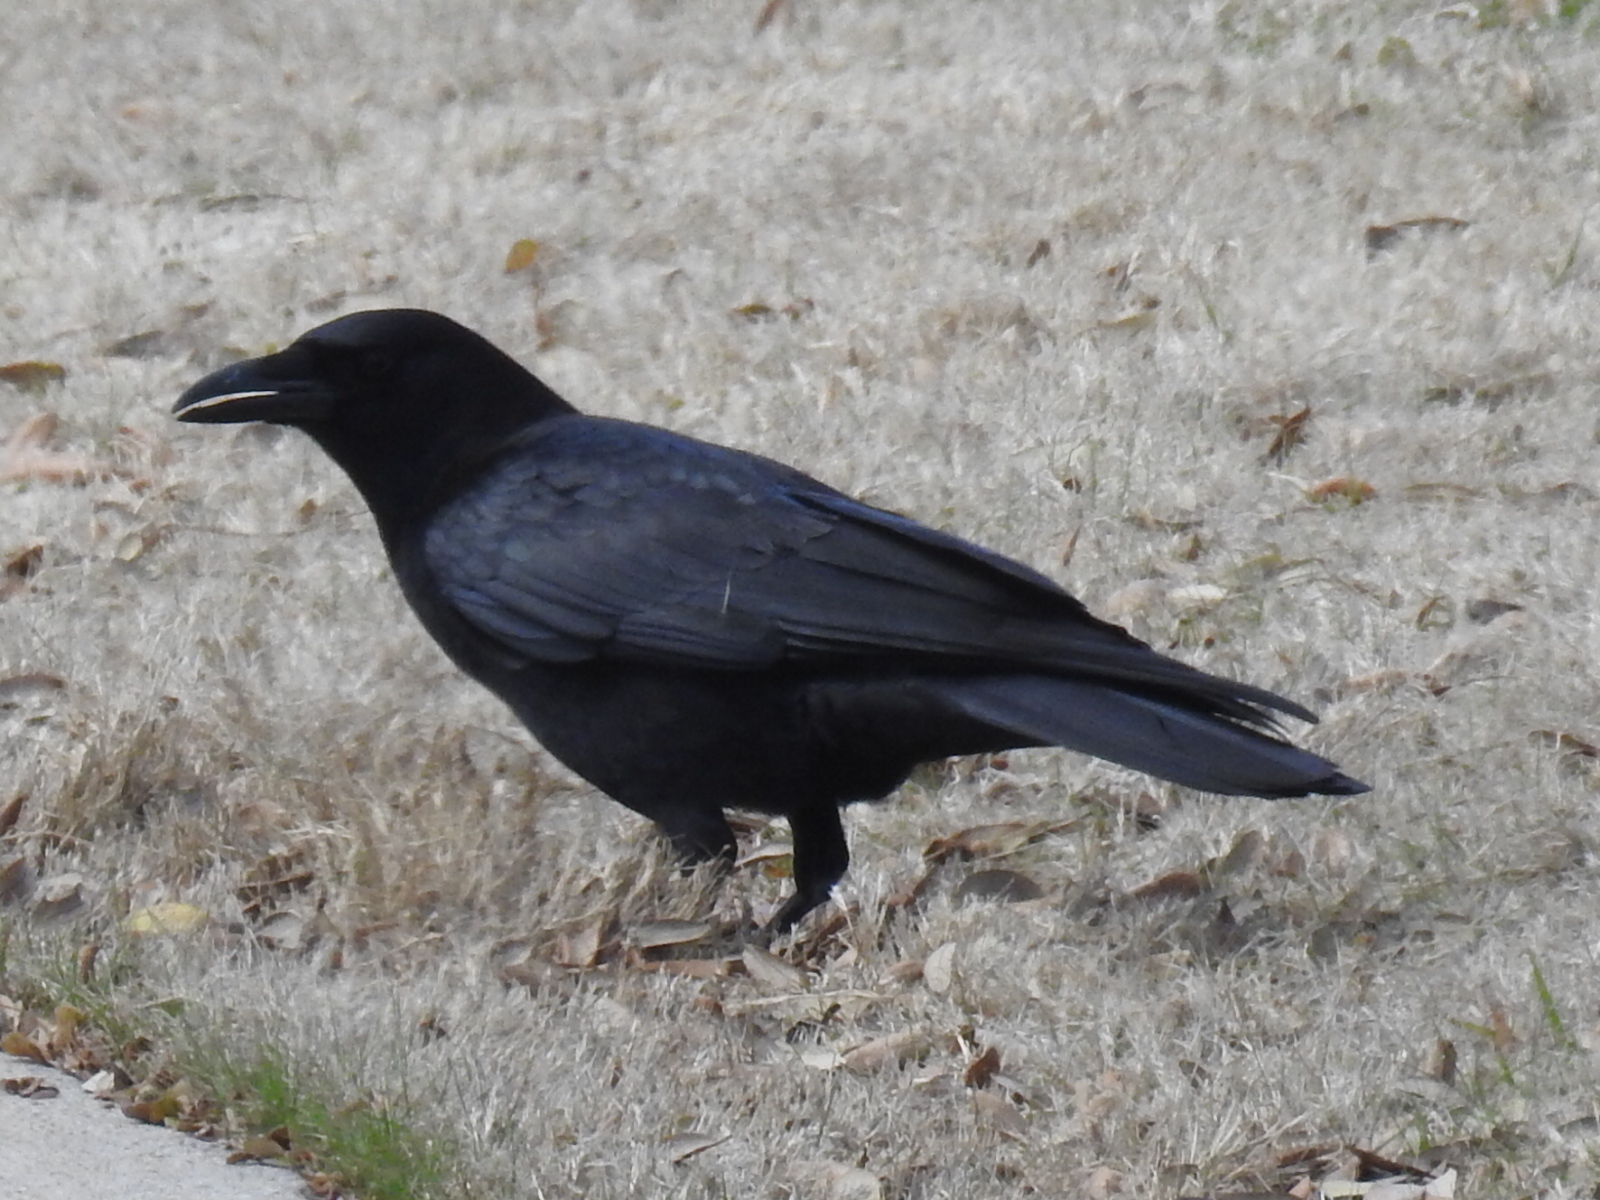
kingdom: Animalia
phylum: Chordata
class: Aves
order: Passeriformes
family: Corvidae
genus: Corvus
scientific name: Corvus brachyrhynchos
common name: American crow
